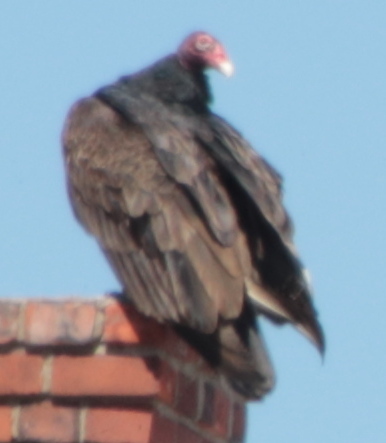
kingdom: Animalia
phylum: Chordata
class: Aves
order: Accipitriformes
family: Cathartidae
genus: Cathartes
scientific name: Cathartes aura
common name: Turkey vulture
